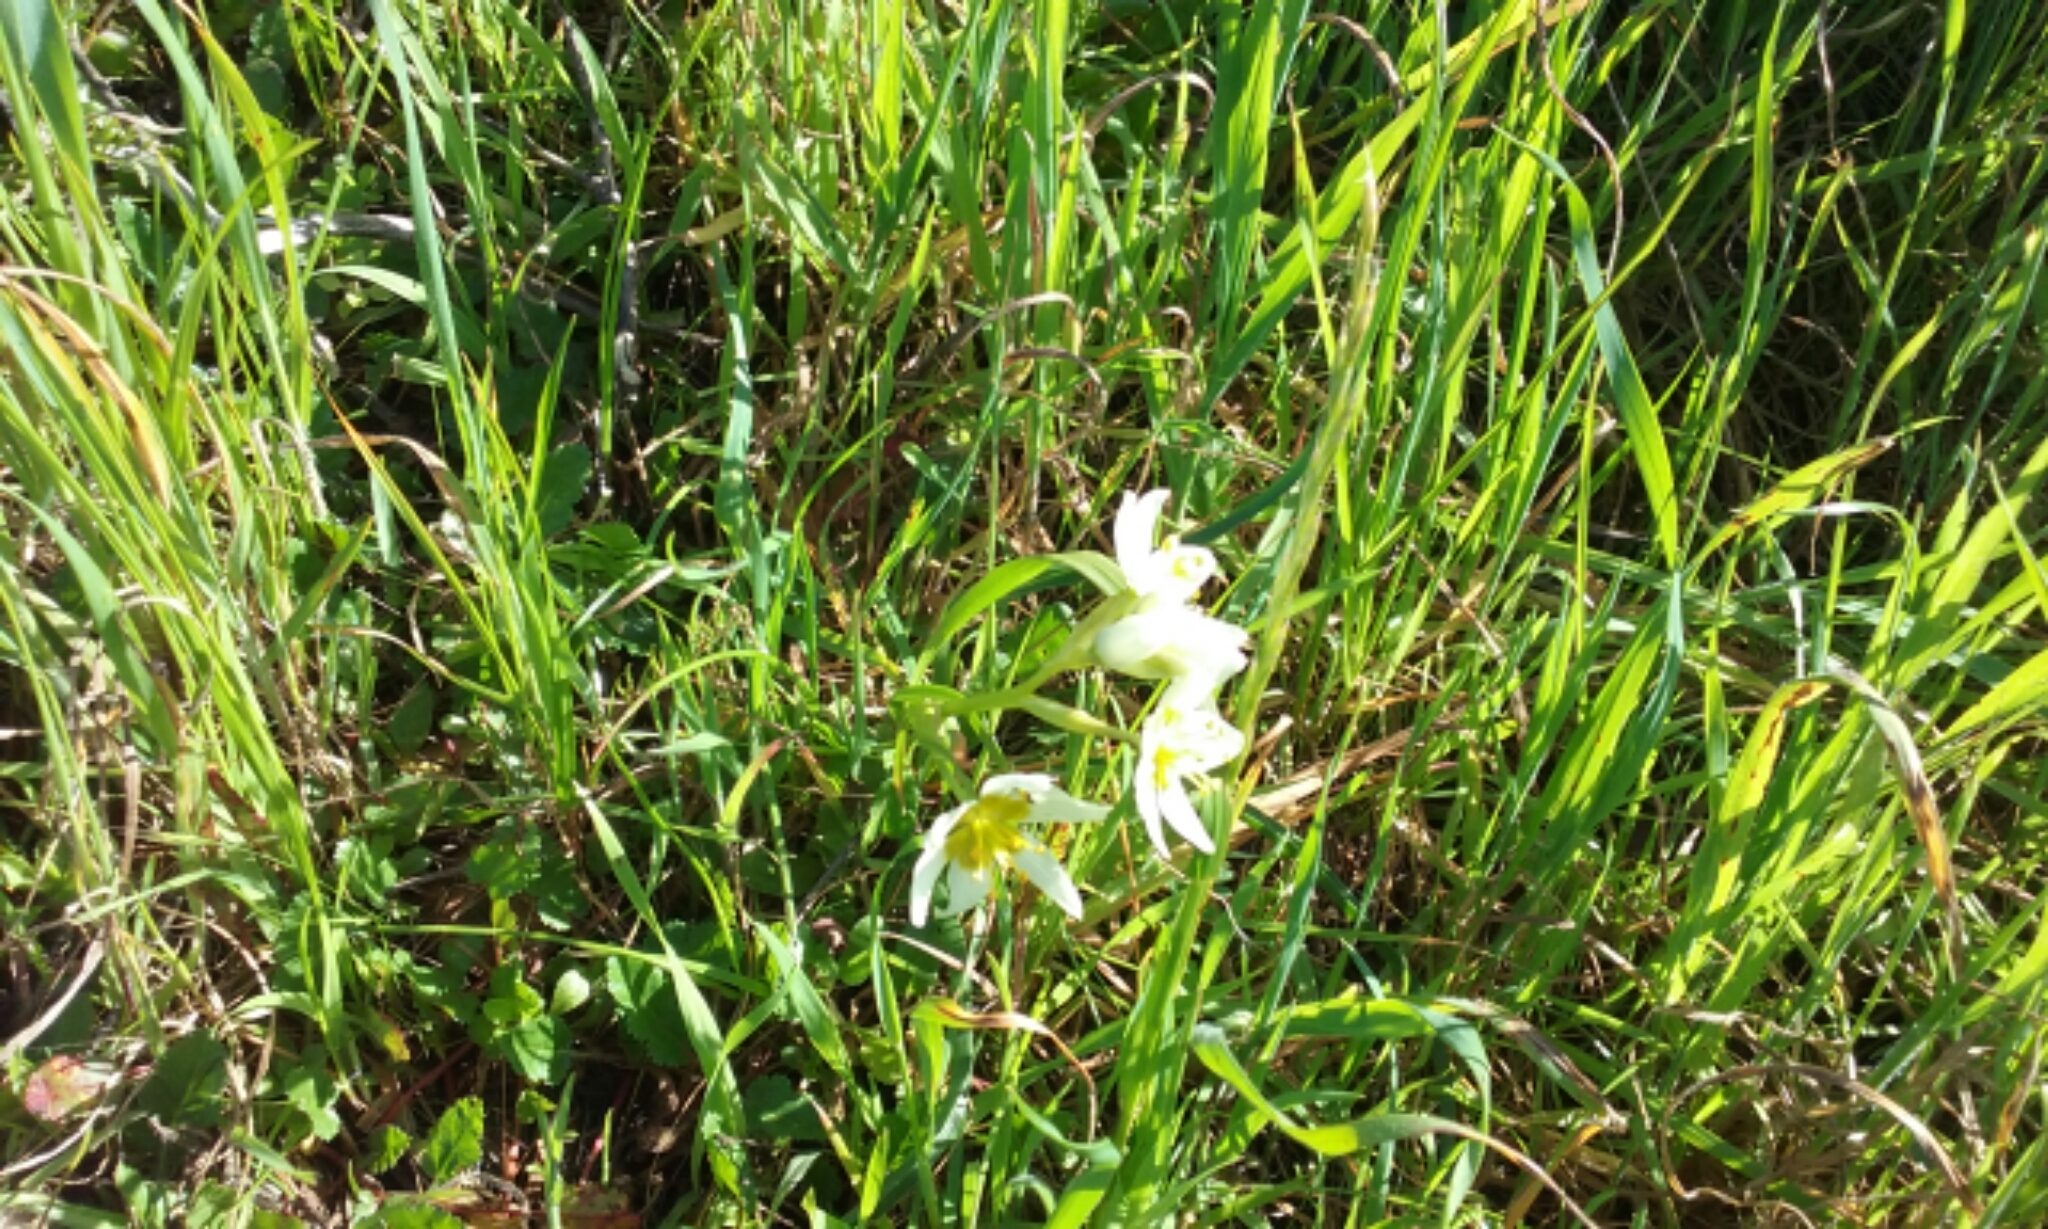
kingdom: Plantae
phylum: Tracheophyta
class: Liliopsida
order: Liliales
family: Melanthiaceae
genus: Toxicoscordion
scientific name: Toxicoscordion fremontii
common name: Fremont's death camas
